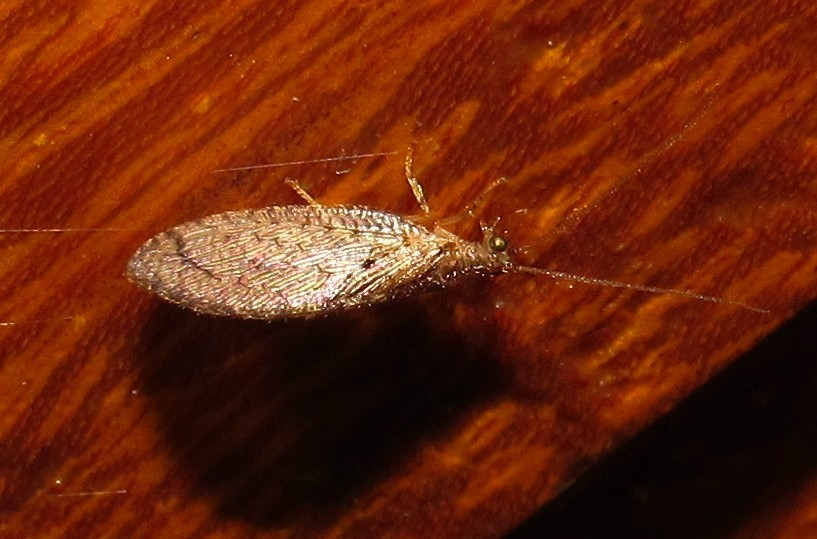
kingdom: Animalia
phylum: Arthropoda
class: Insecta
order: Neuroptera
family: Hemerobiidae
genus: Nusalala
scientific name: Nusalala tessellata
